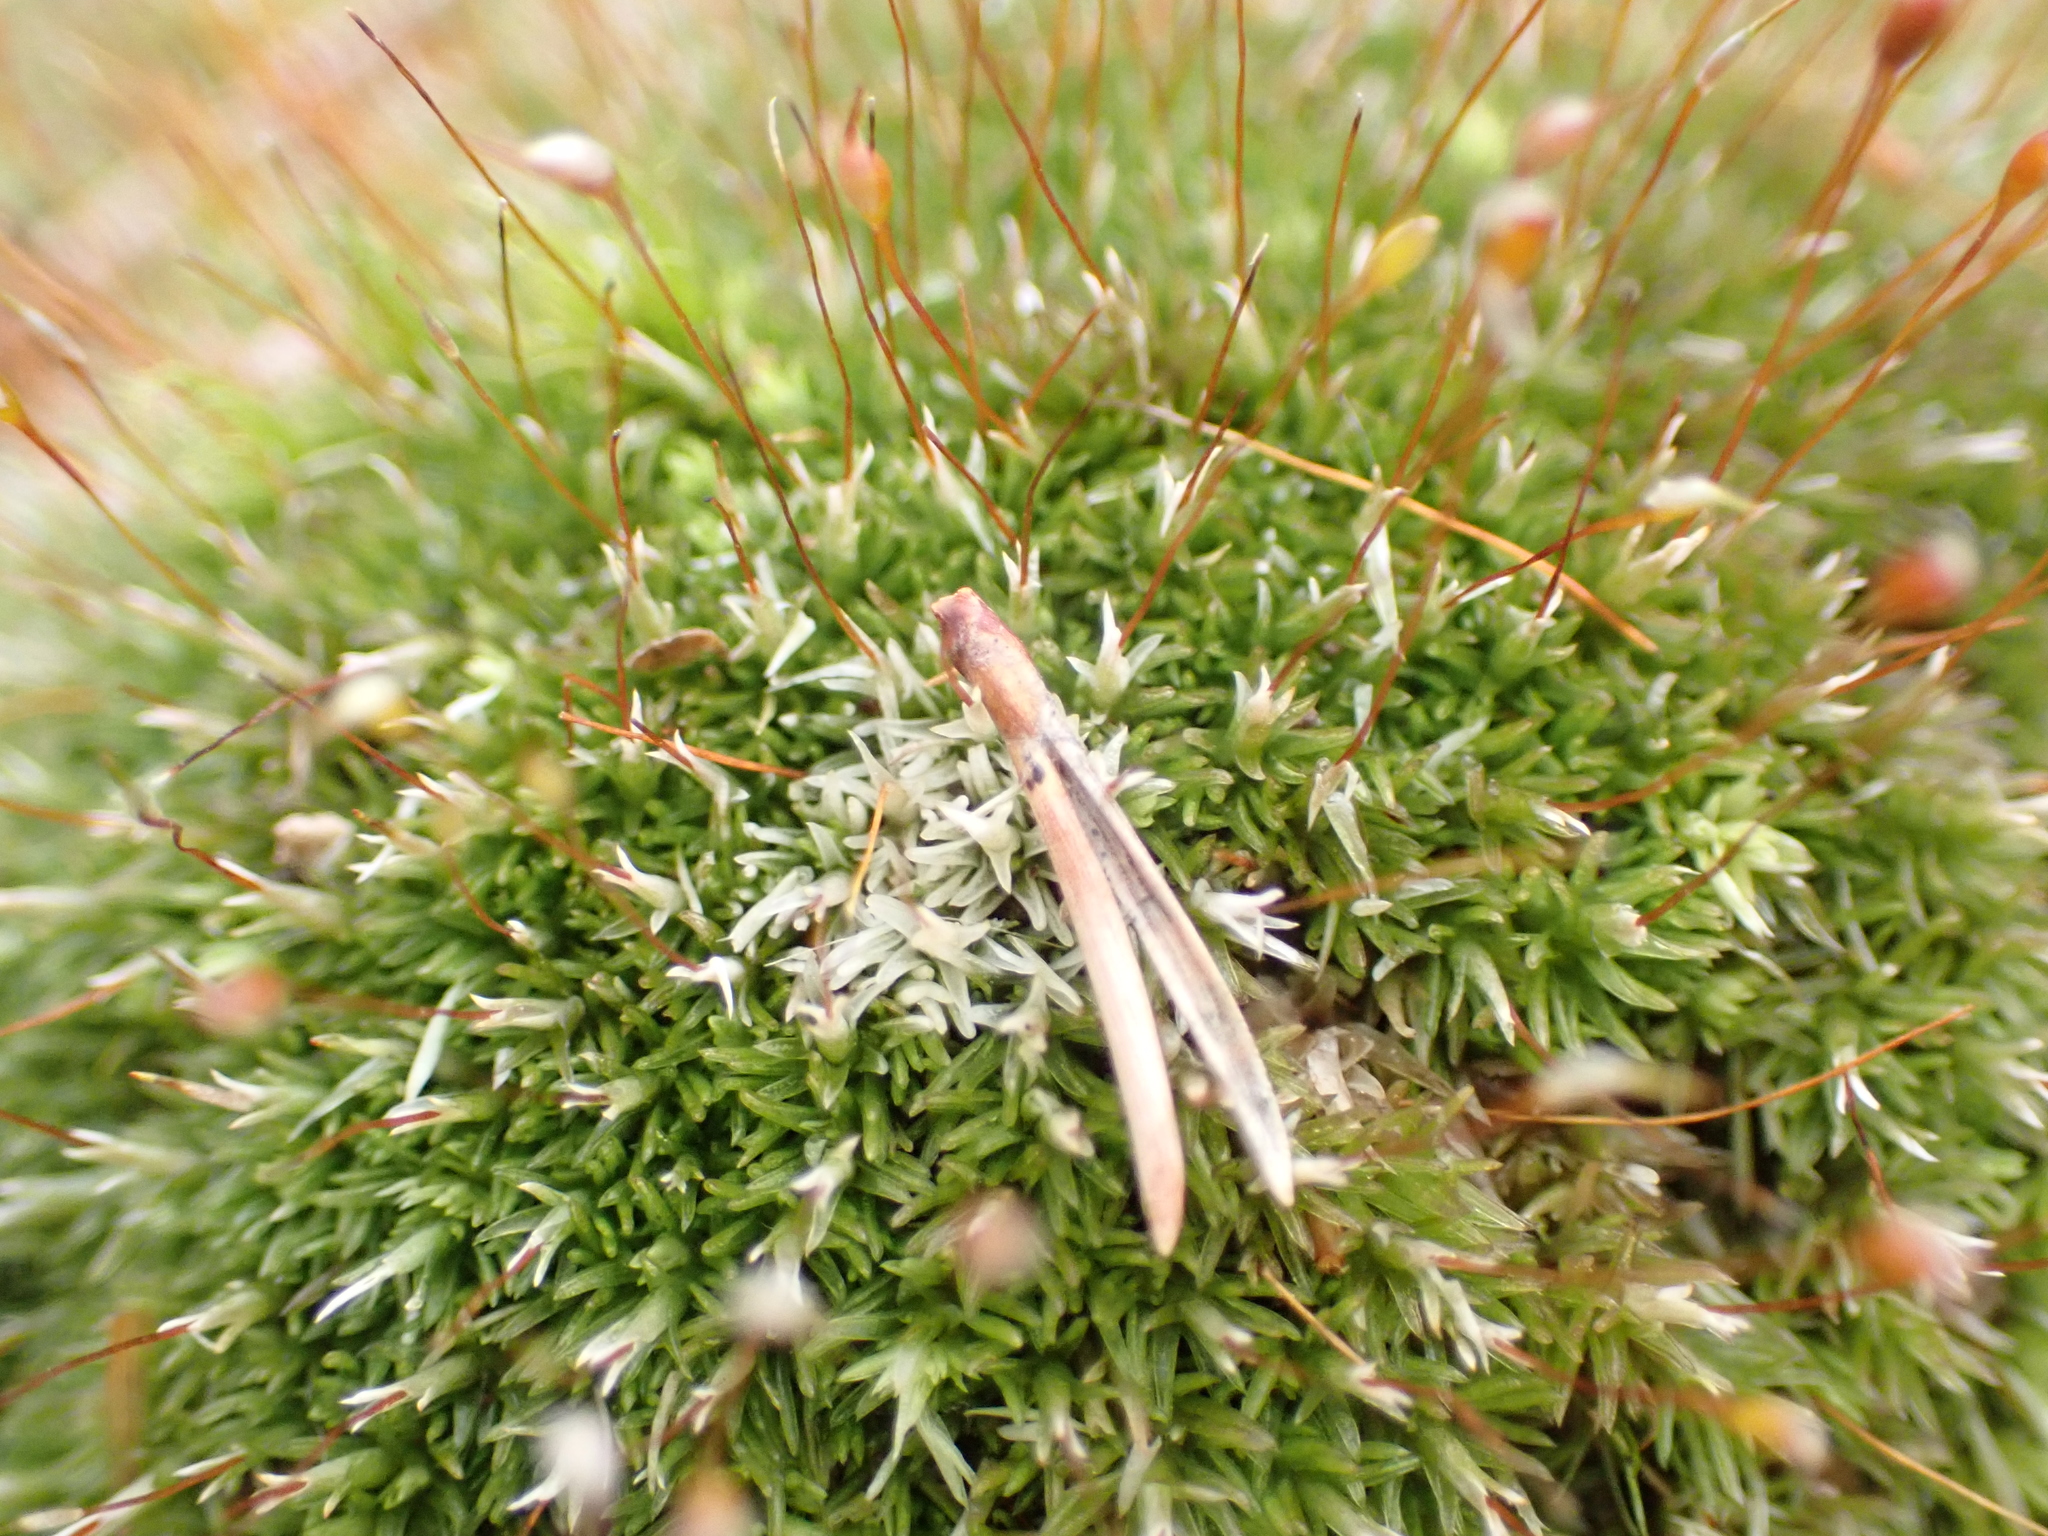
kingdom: Plantae
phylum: Bryophyta
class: Bryopsida
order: Dicranales
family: Leucobryaceae
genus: Leucobryum
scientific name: Leucobryum albidum
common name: White moss
